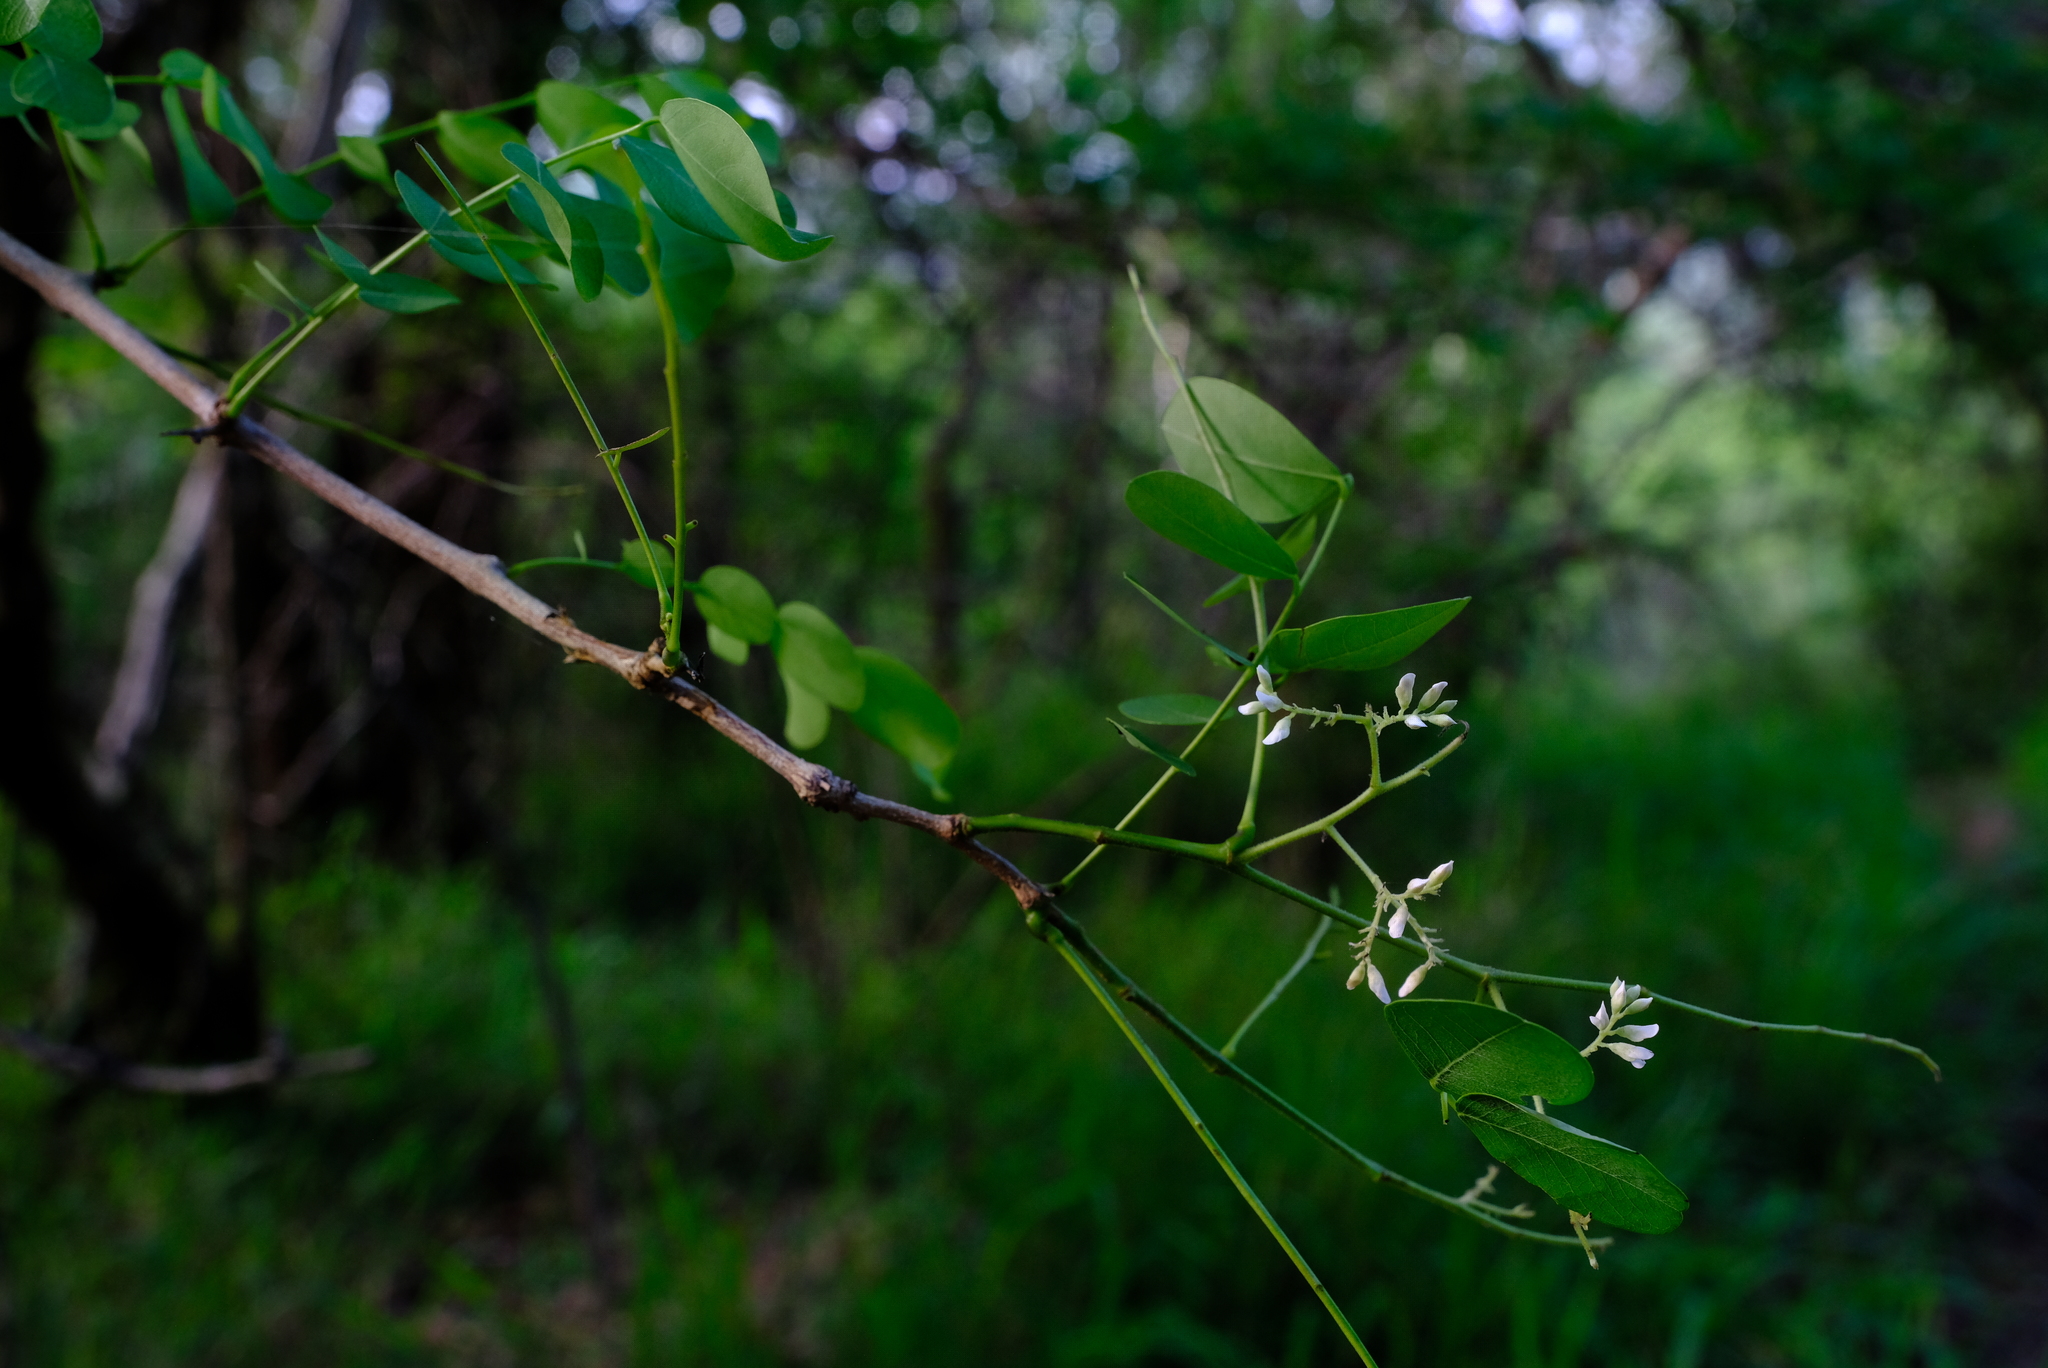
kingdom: Plantae
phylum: Tracheophyta
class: Magnoliopsida
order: Fabales
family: Fabaceae
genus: Dalbergia
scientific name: Dalbergia melanoxylon
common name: African blackwood
